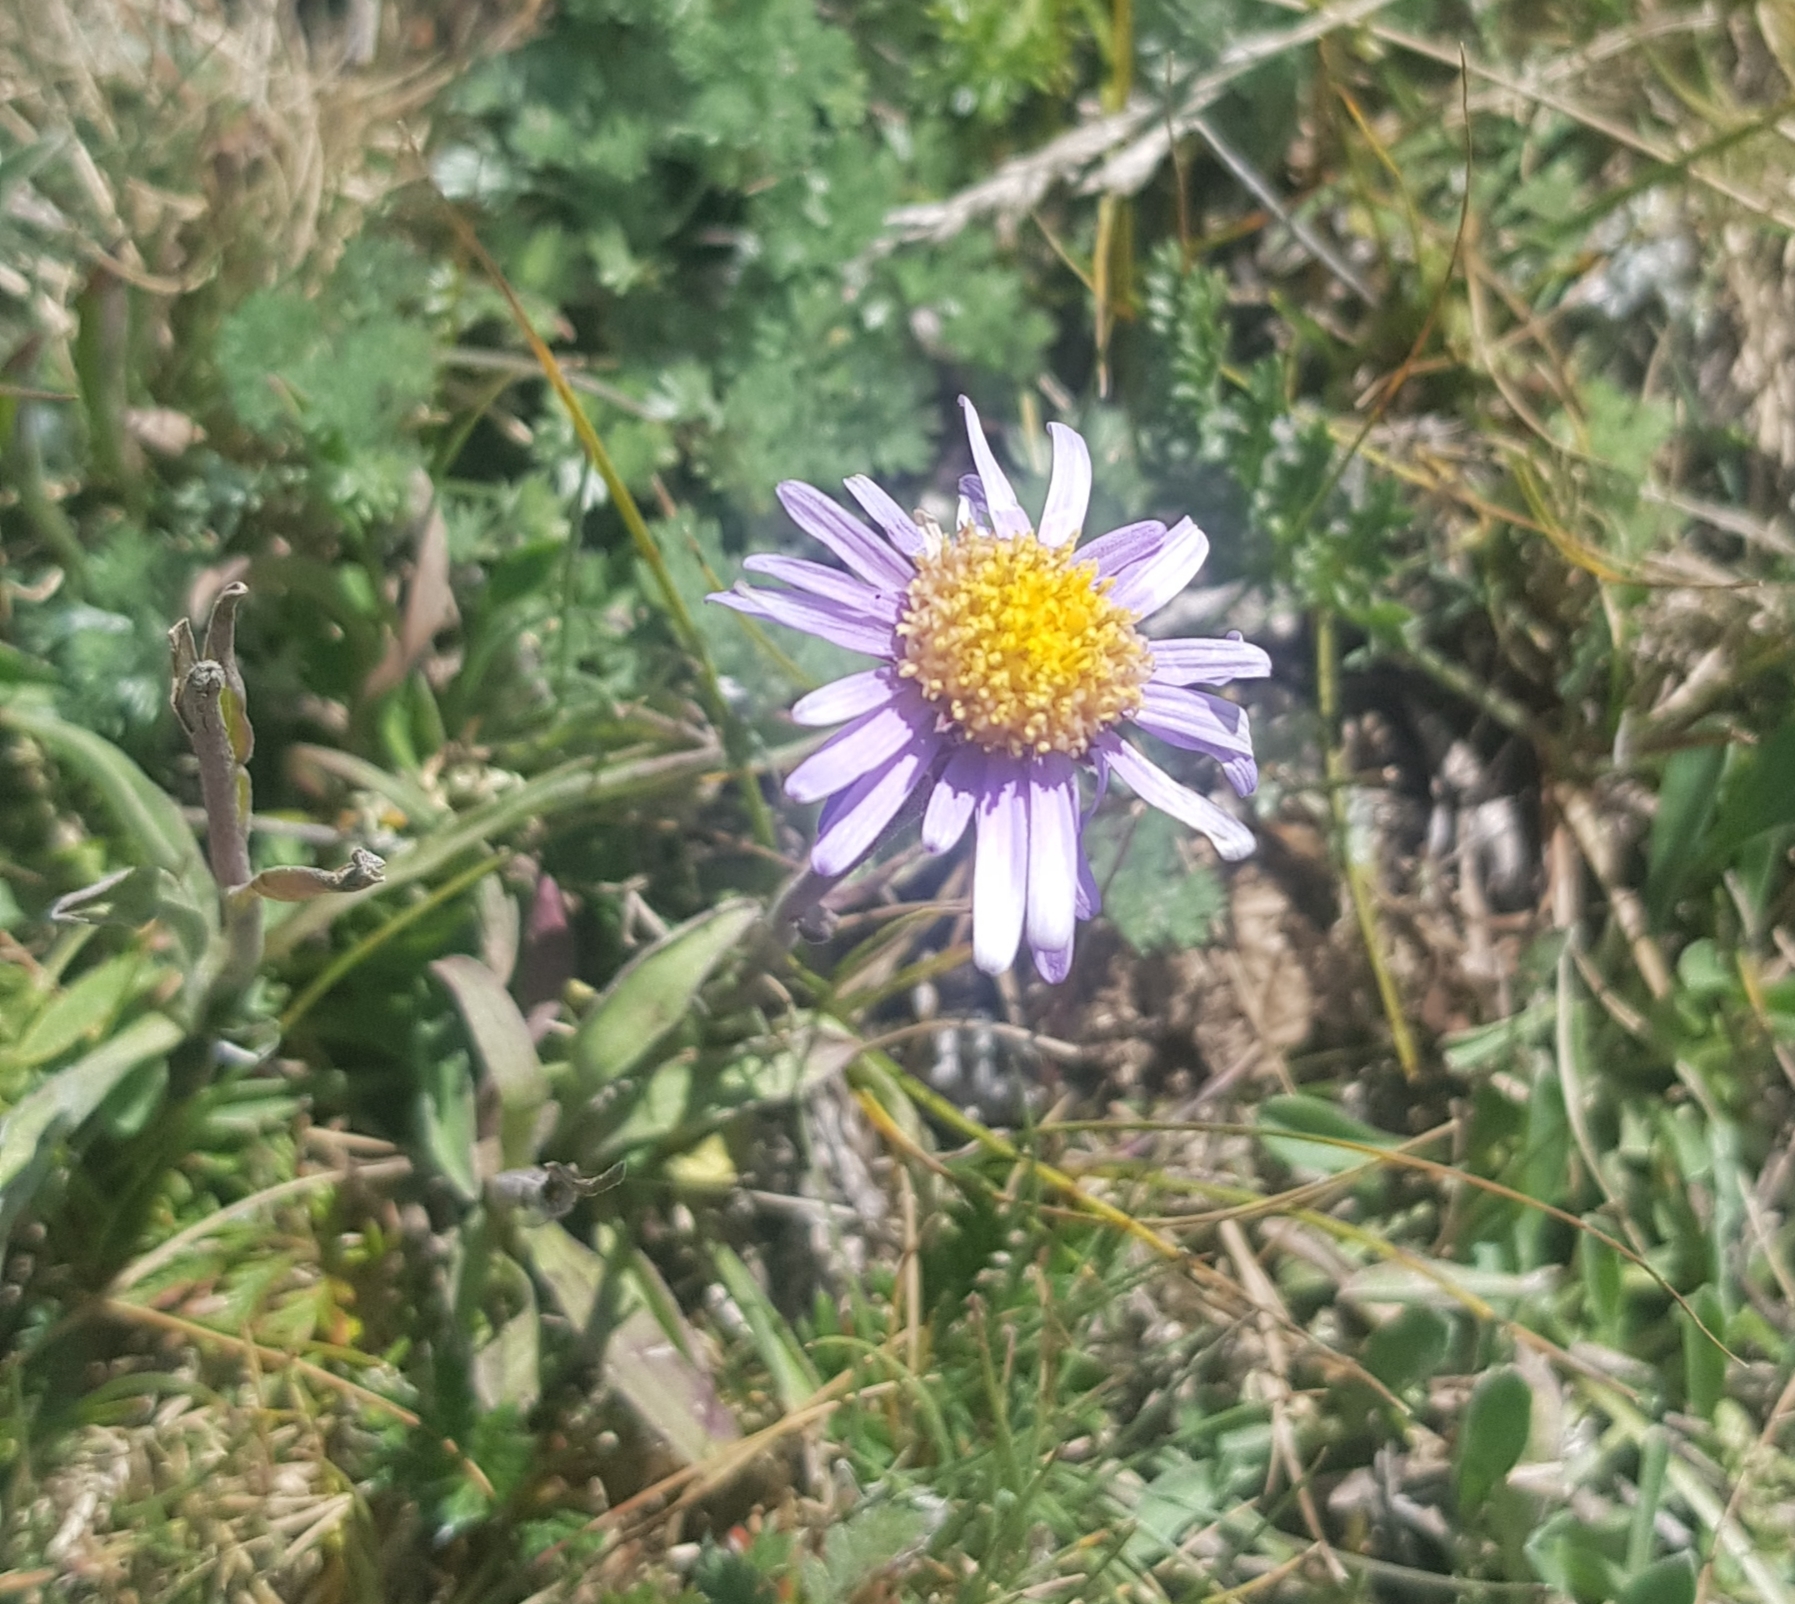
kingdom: Plantae
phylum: Tracheophyta
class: Magnoliopsida
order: Asterales
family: Asteraceae
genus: Aster
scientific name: Aster alpinus
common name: Alpine aster
